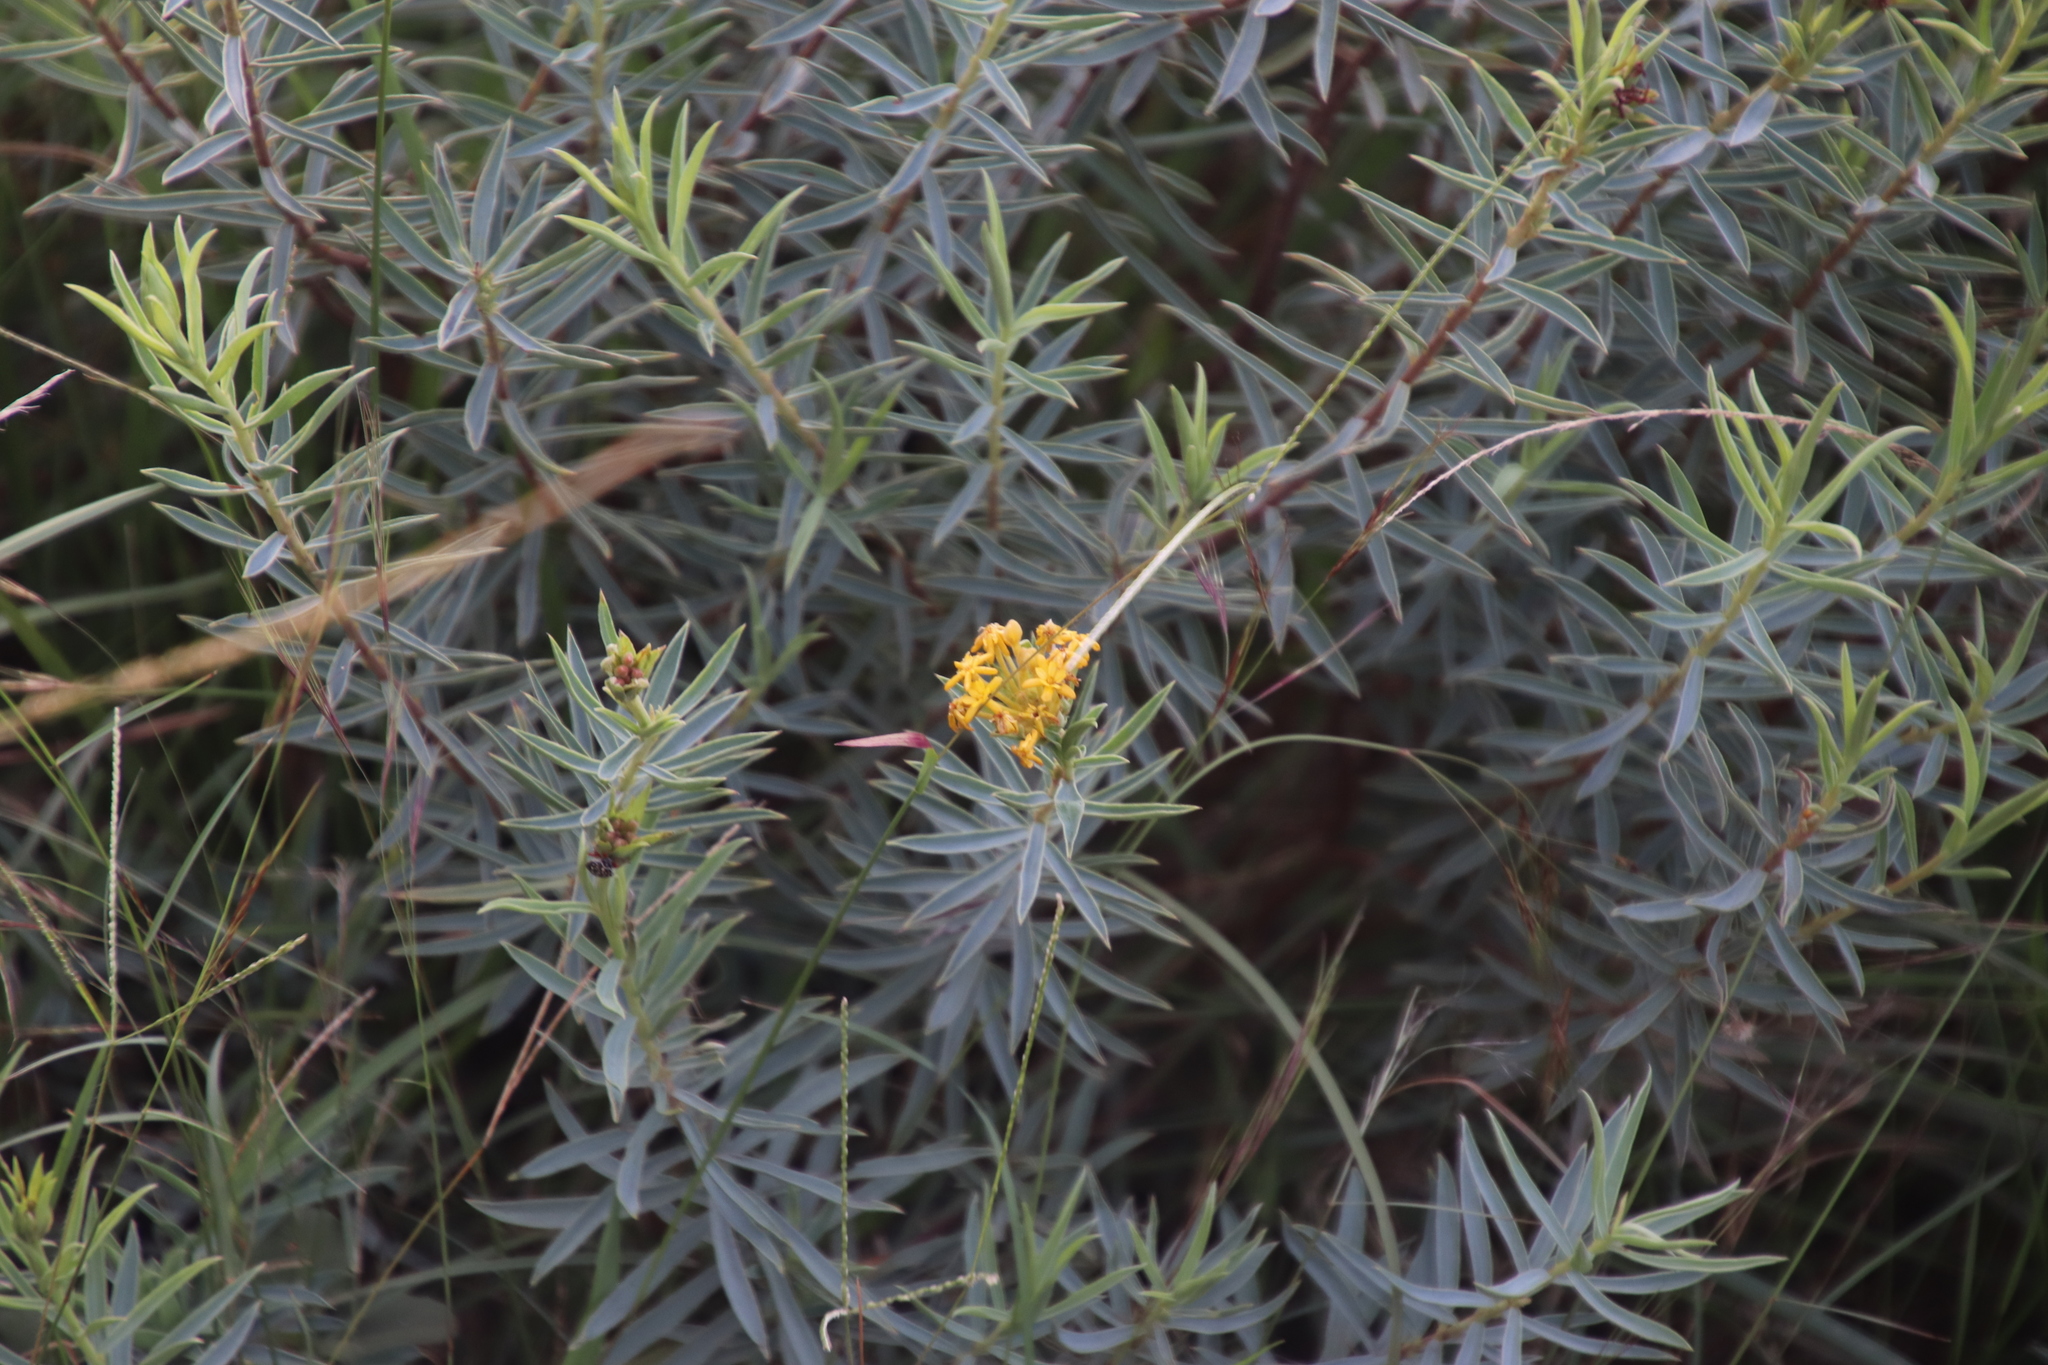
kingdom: Plantae
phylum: Tracheophyta
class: Magnoliopsida
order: Malvales
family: Thymelaeaceae
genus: Gnidia
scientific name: Gnidia capitata
